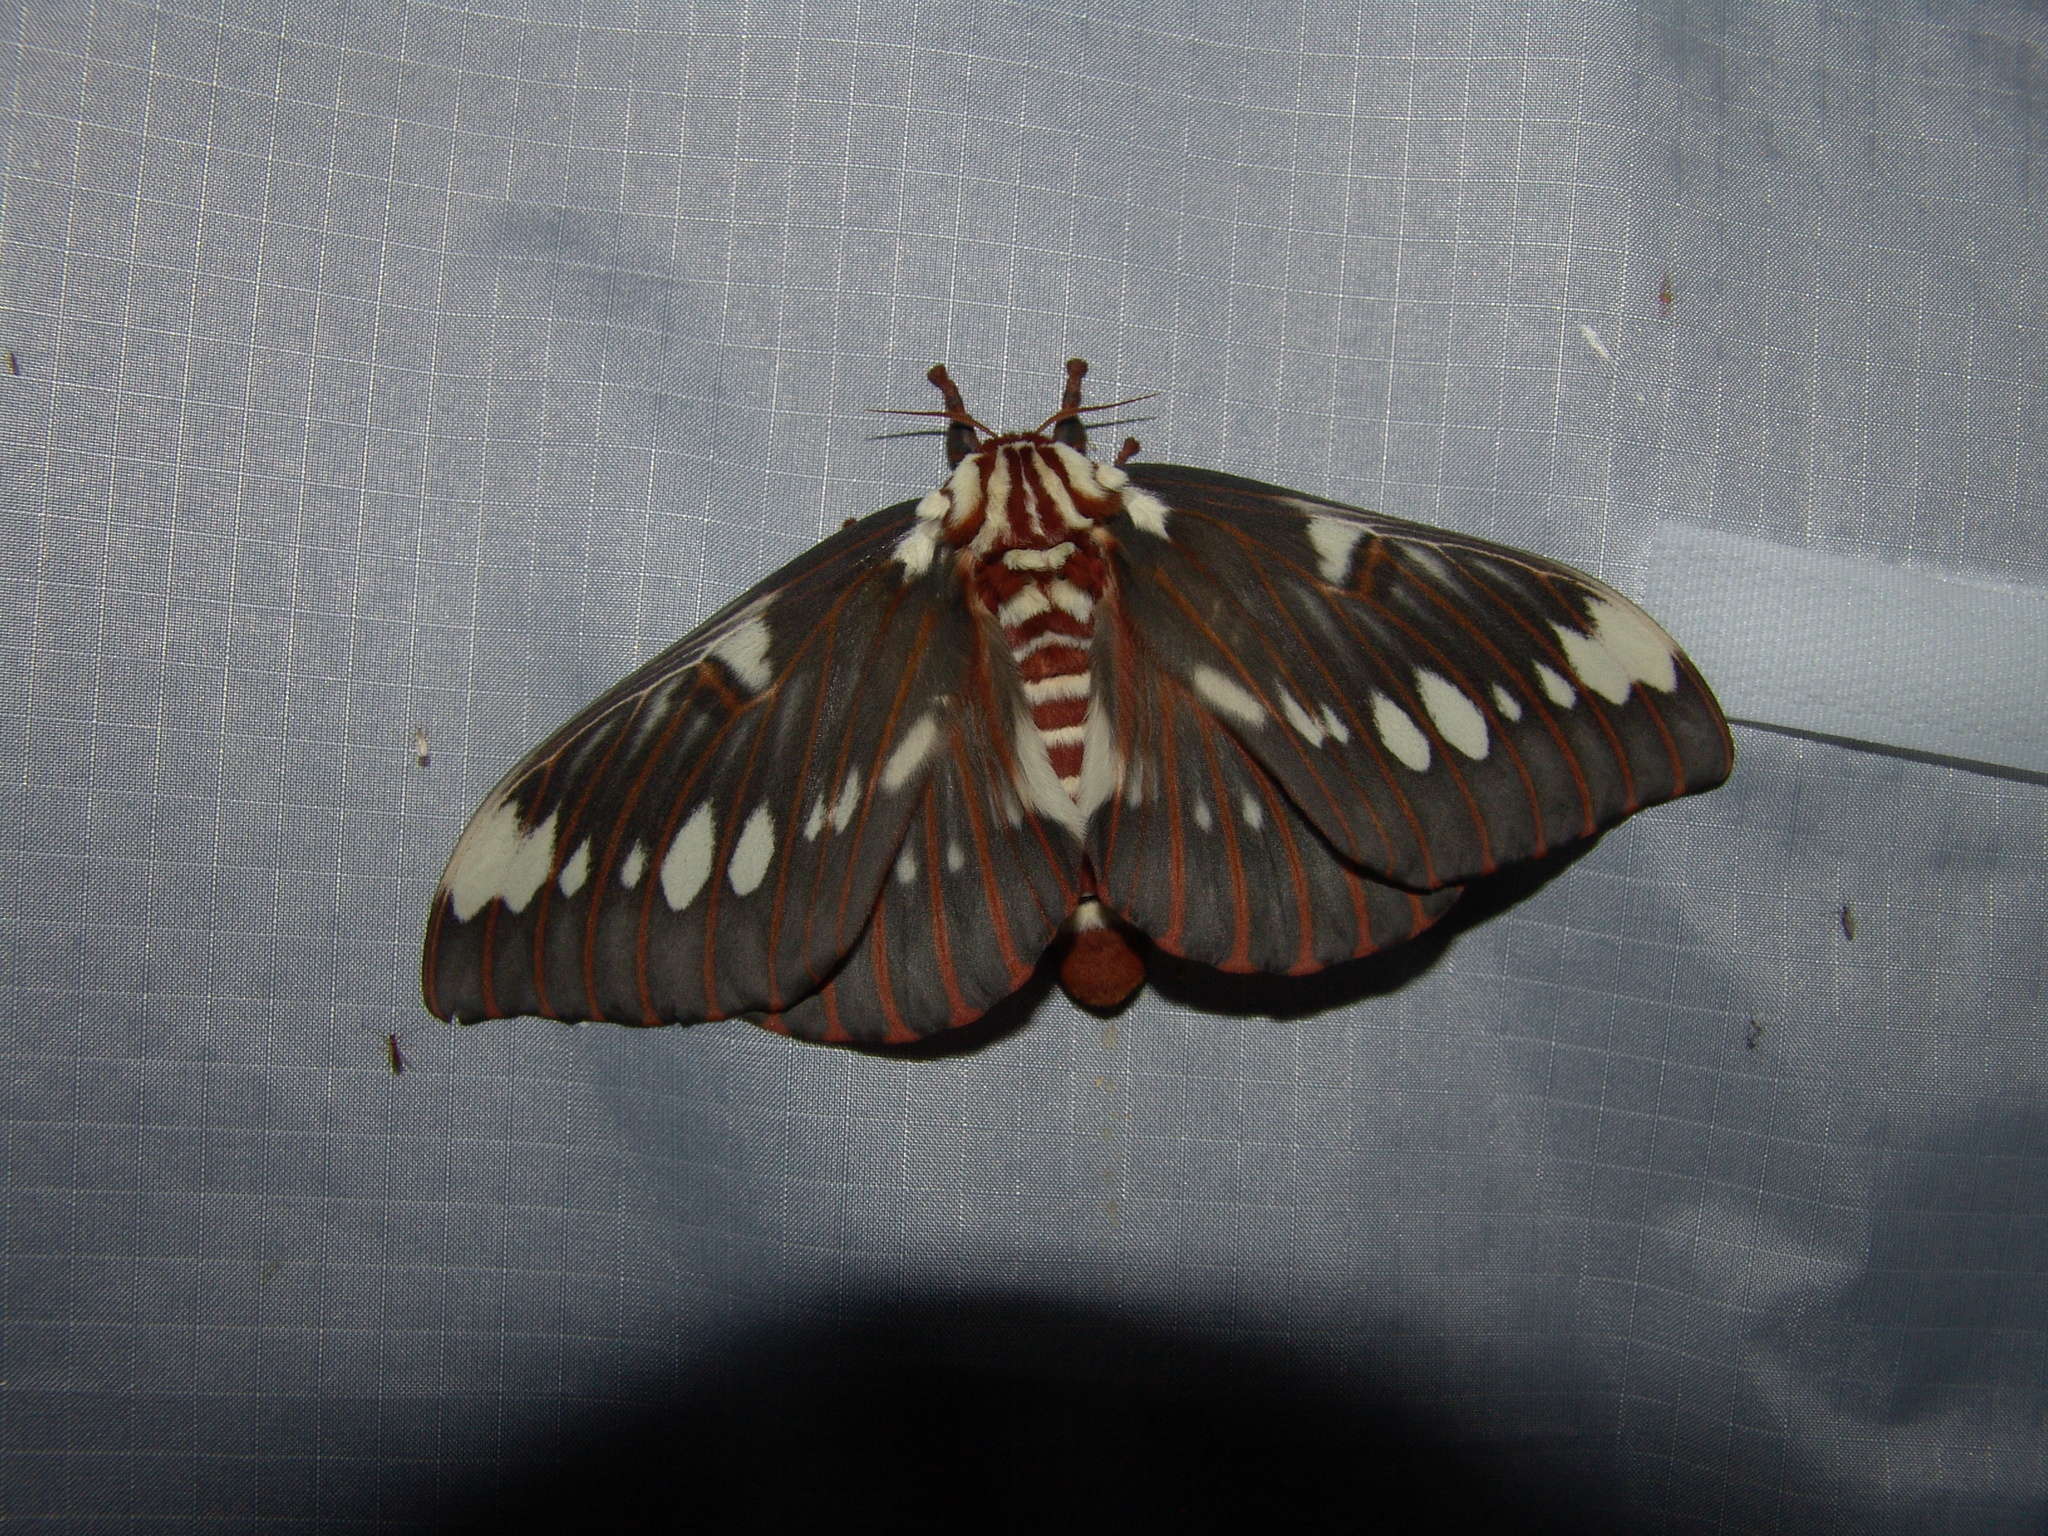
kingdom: Animalia
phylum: Arthropoda
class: Insecta
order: Lepidoptera
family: Saturniidae
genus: Citheronia
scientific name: Citheronia splendens
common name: Splendid royal moth
